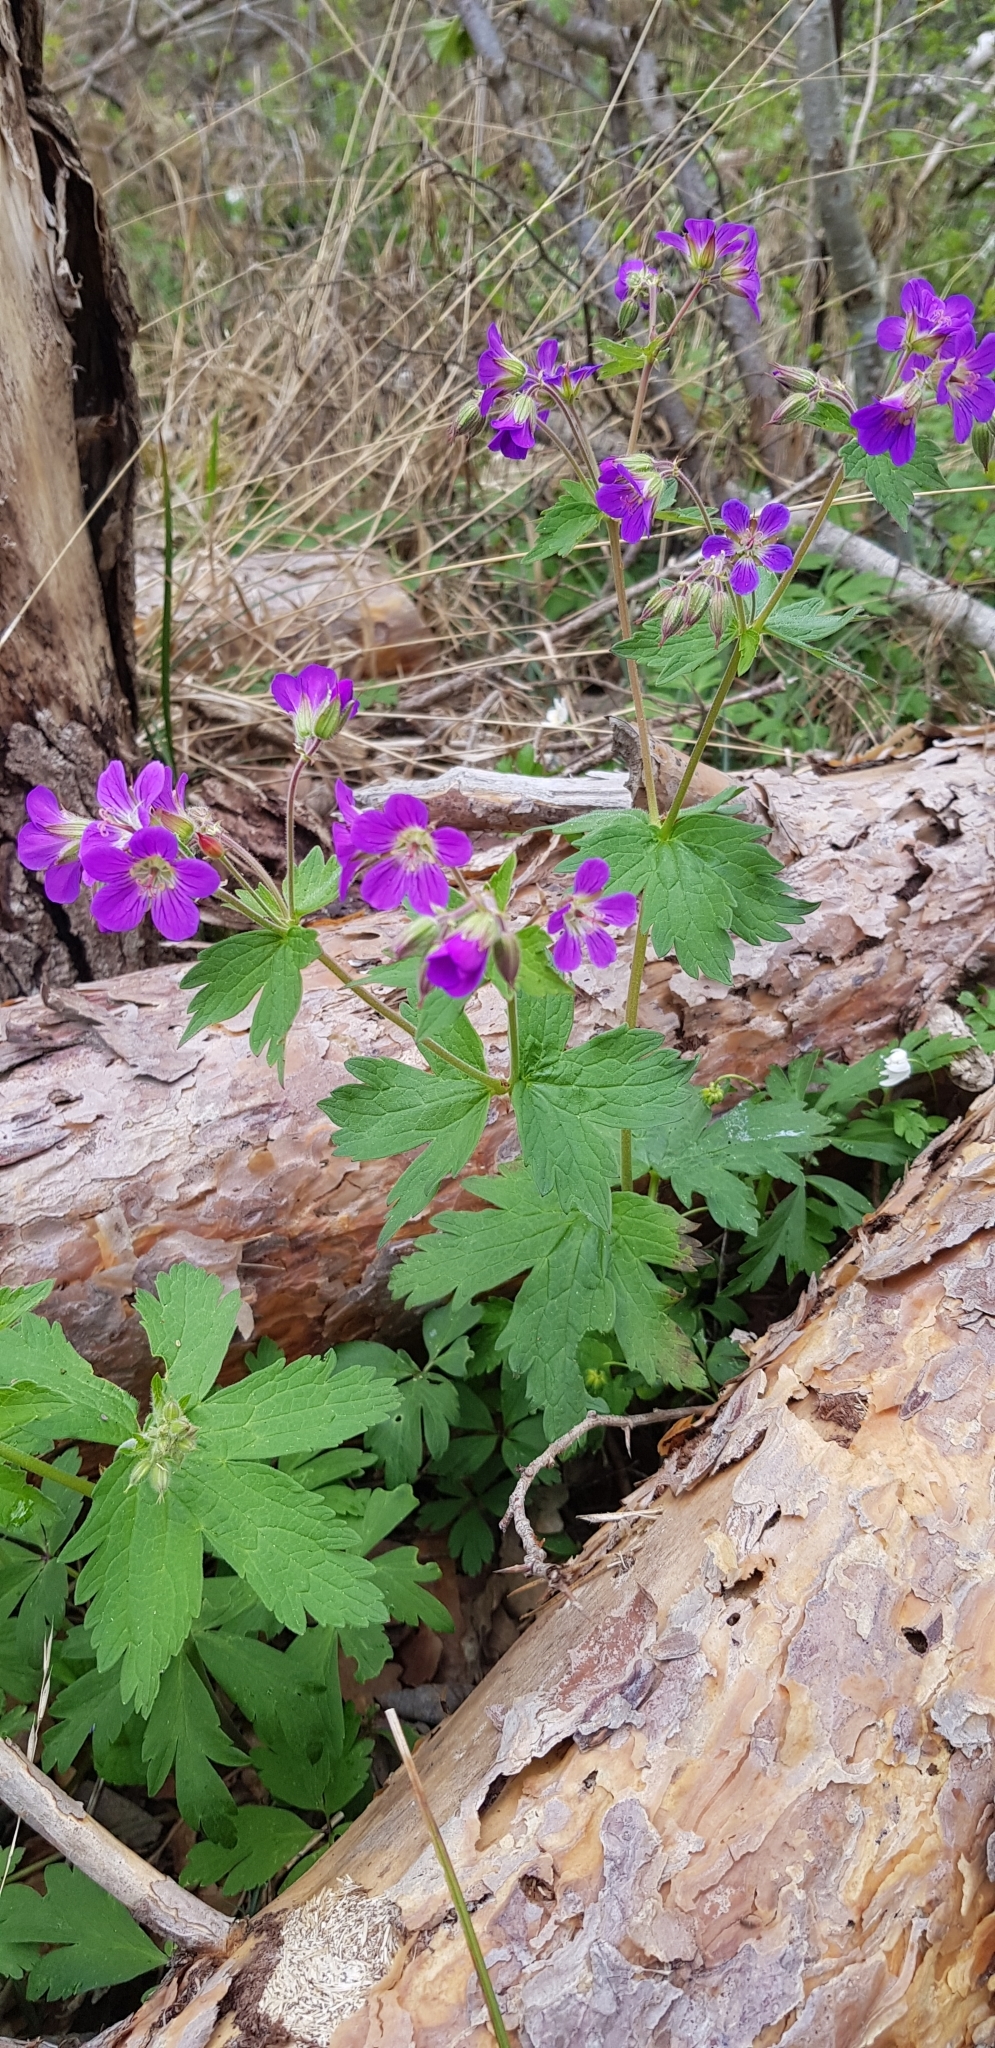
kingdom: Plantae
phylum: Tracheophyta
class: Magnoliopsida
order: Geraniales
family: Geraniaceae
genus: Geranium
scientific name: Geranium sylvaticum
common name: Wood crane's-bill
